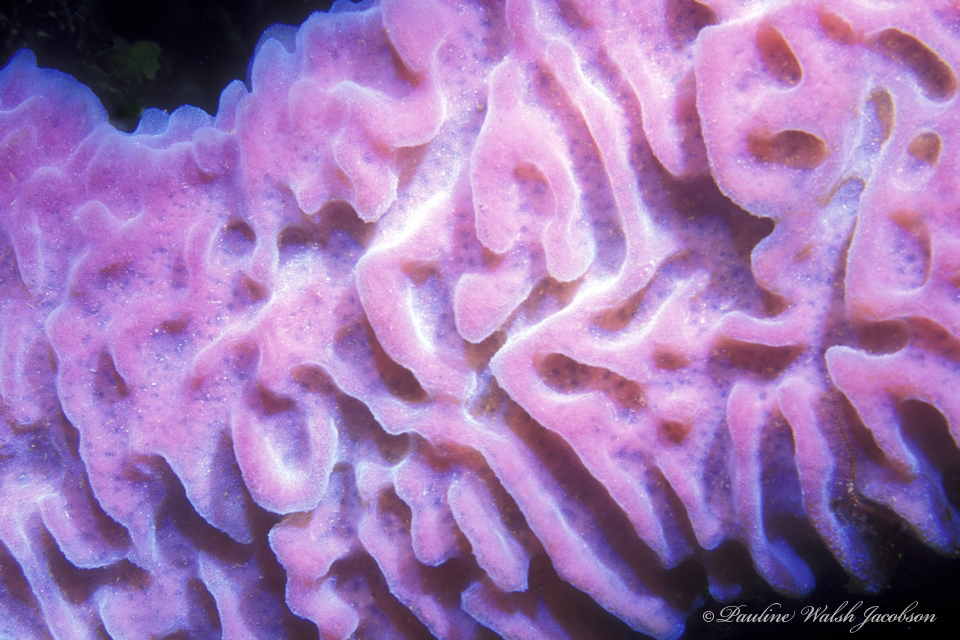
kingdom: Animalia
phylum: Porifera
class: Demospongiae
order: Haplosclerida
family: Callyspongiidae
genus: Callyspongia
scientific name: Callyspongia plicifera
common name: Azure vase sponge
